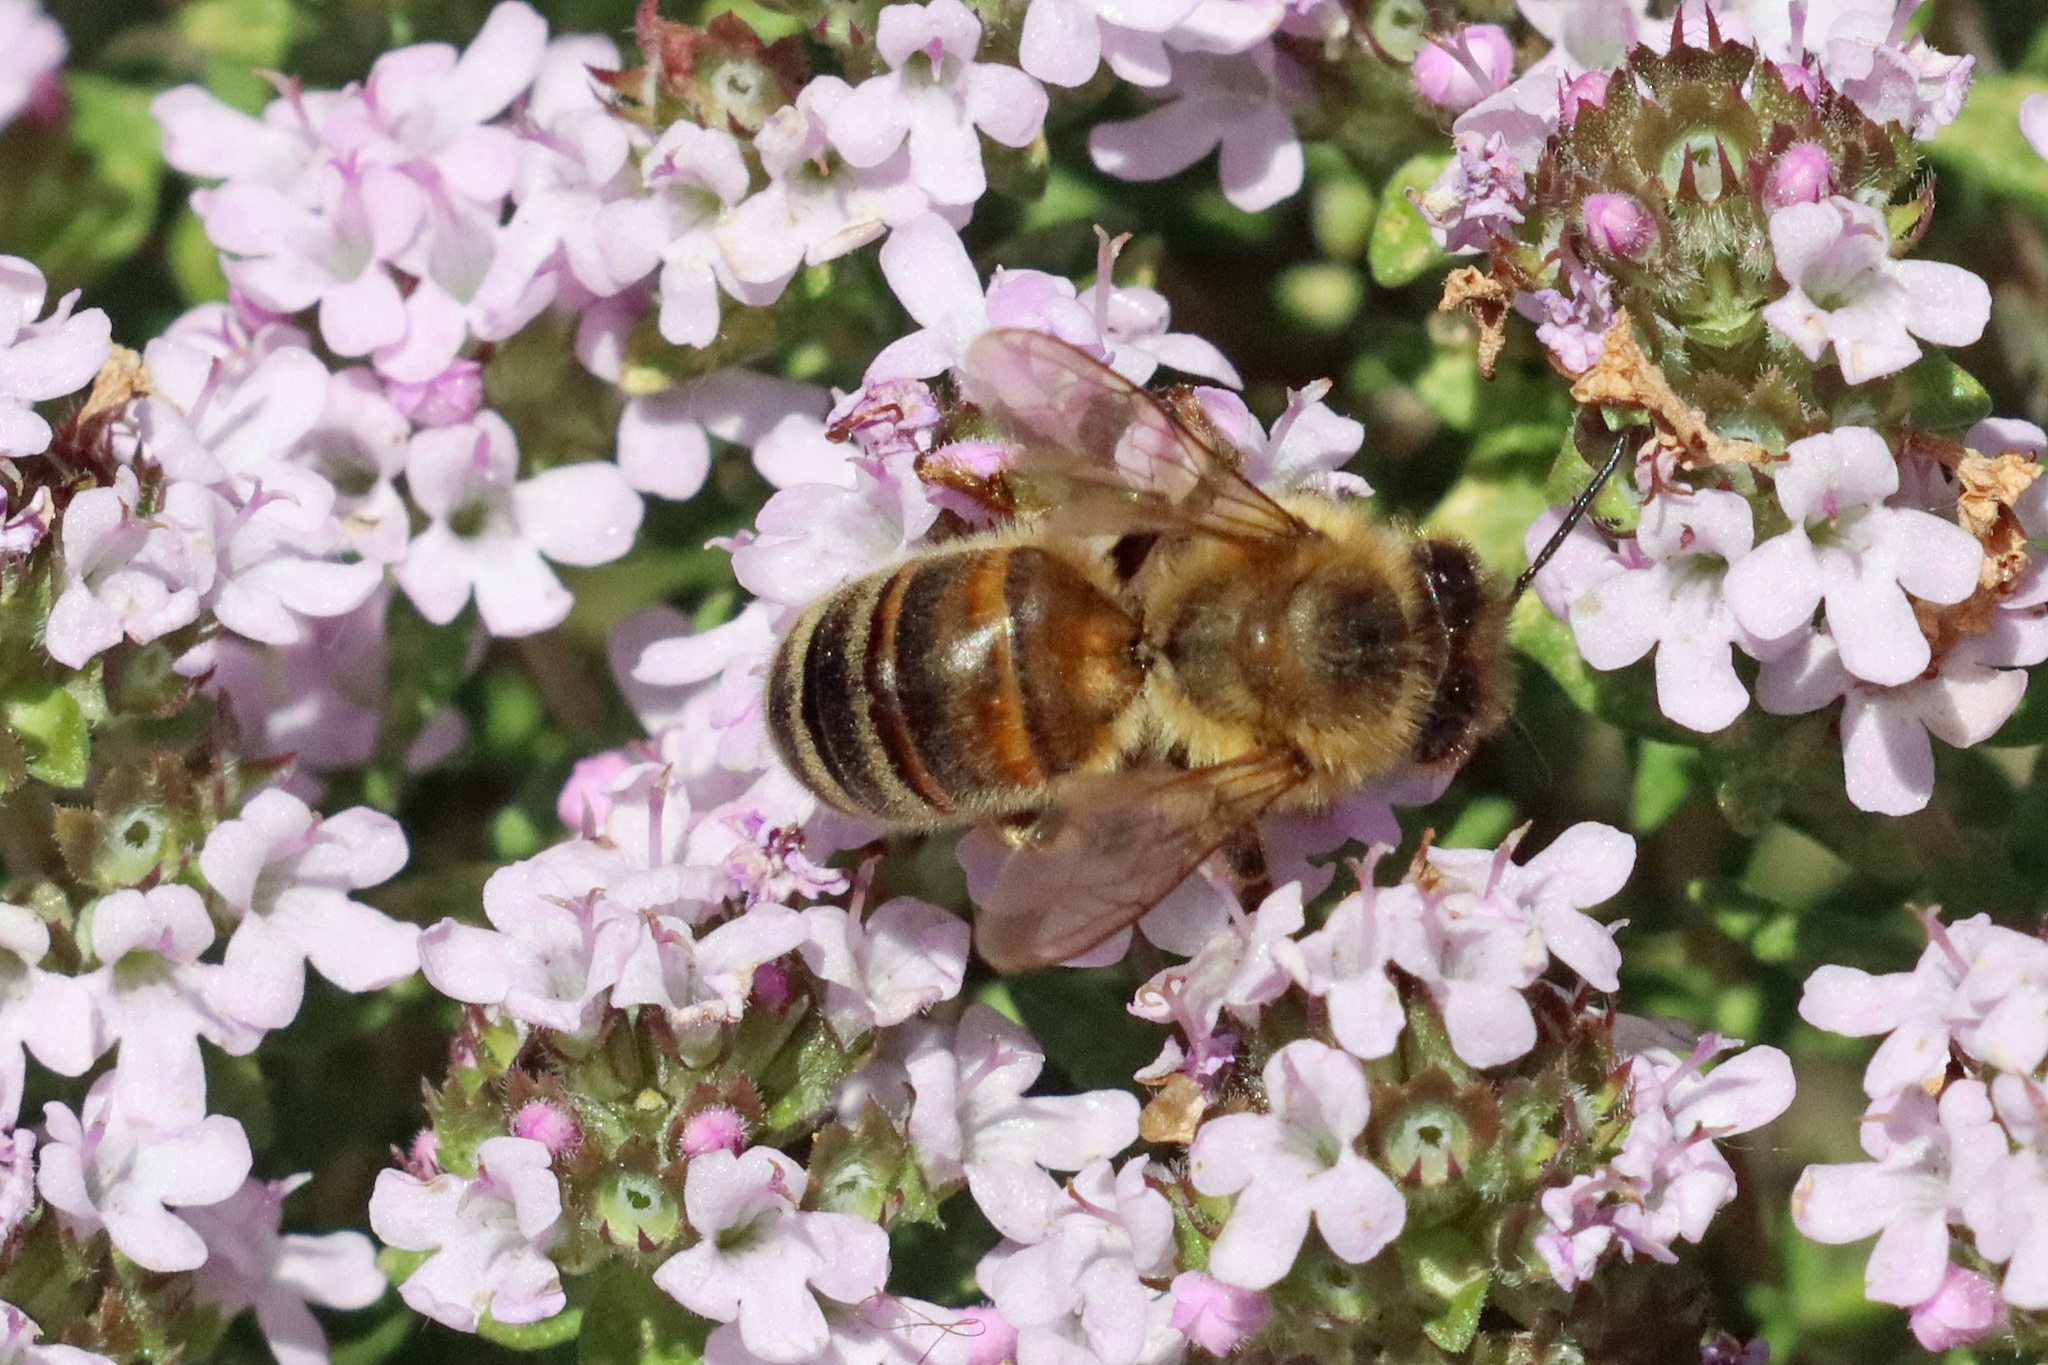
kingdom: Animalia
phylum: Arthropoda
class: Insecta
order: Hymenoptera
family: Apidae
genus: Apis
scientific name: Apis mellifera
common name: Honey bee
